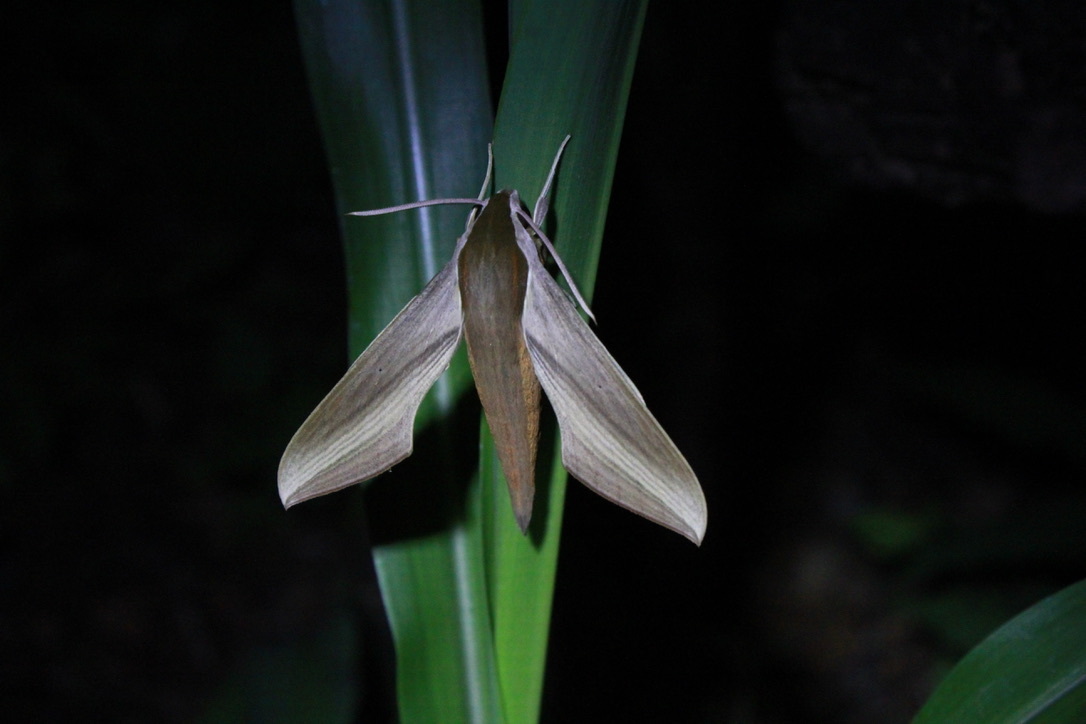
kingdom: Animalia
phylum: Arthropoda
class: Insecta
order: Lepidoptera
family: Sphingidae
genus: Xylophanes
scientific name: Xylophanes tersa
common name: Tersa sphinx
